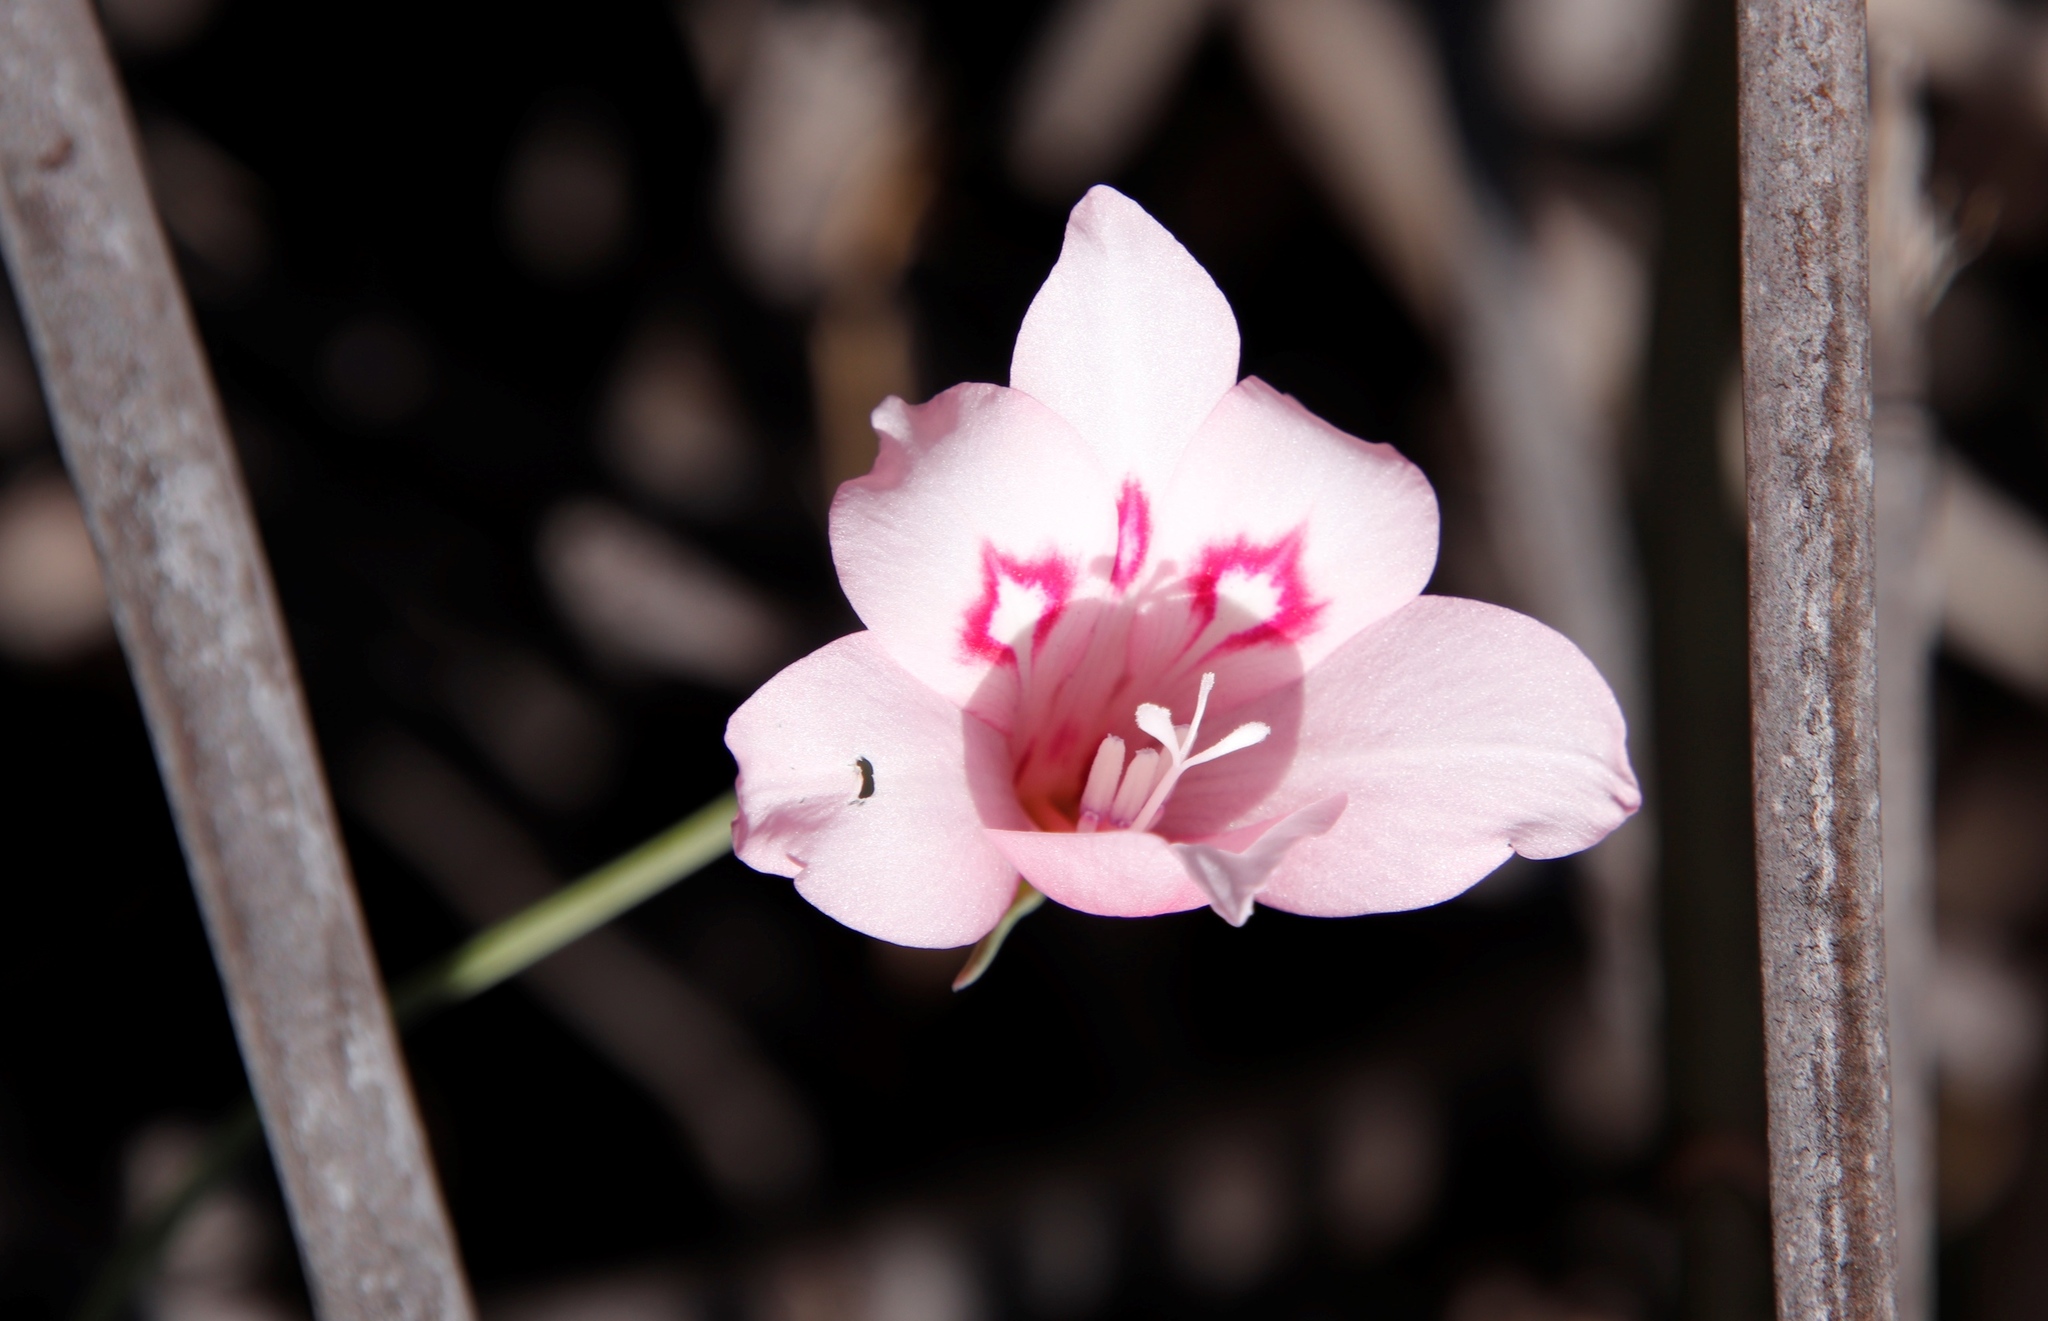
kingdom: Plantae
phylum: Tracheophyta
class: Liliopsida
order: Asparagales
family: Iridaceae
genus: Gladiolus
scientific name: Gladiolus pappei
